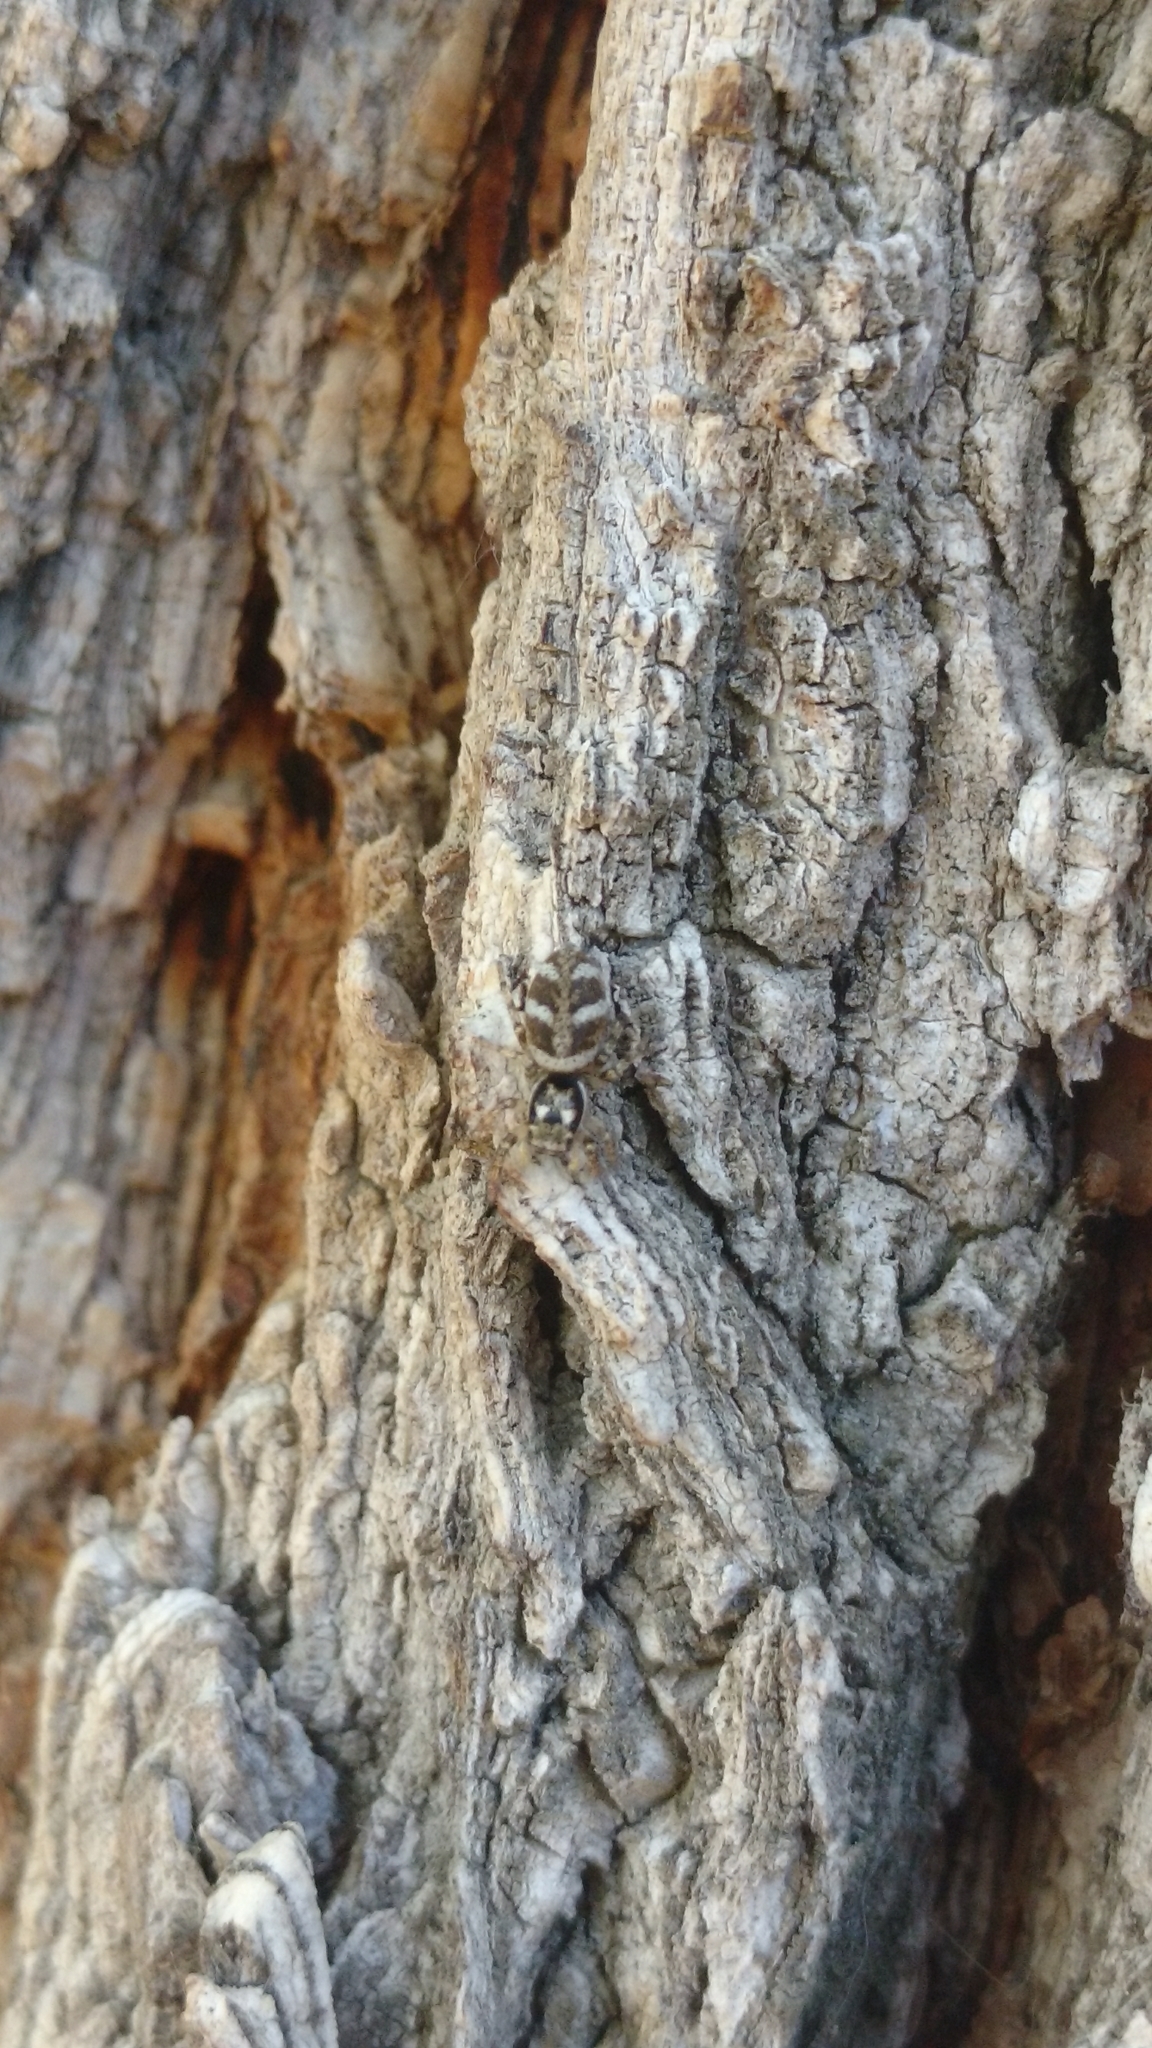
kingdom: Animalia
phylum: Arthropoda
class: Arachnida
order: Araneae
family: Salticidae
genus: Salticus
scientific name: Salticus scenicus
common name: Zebra jumper
